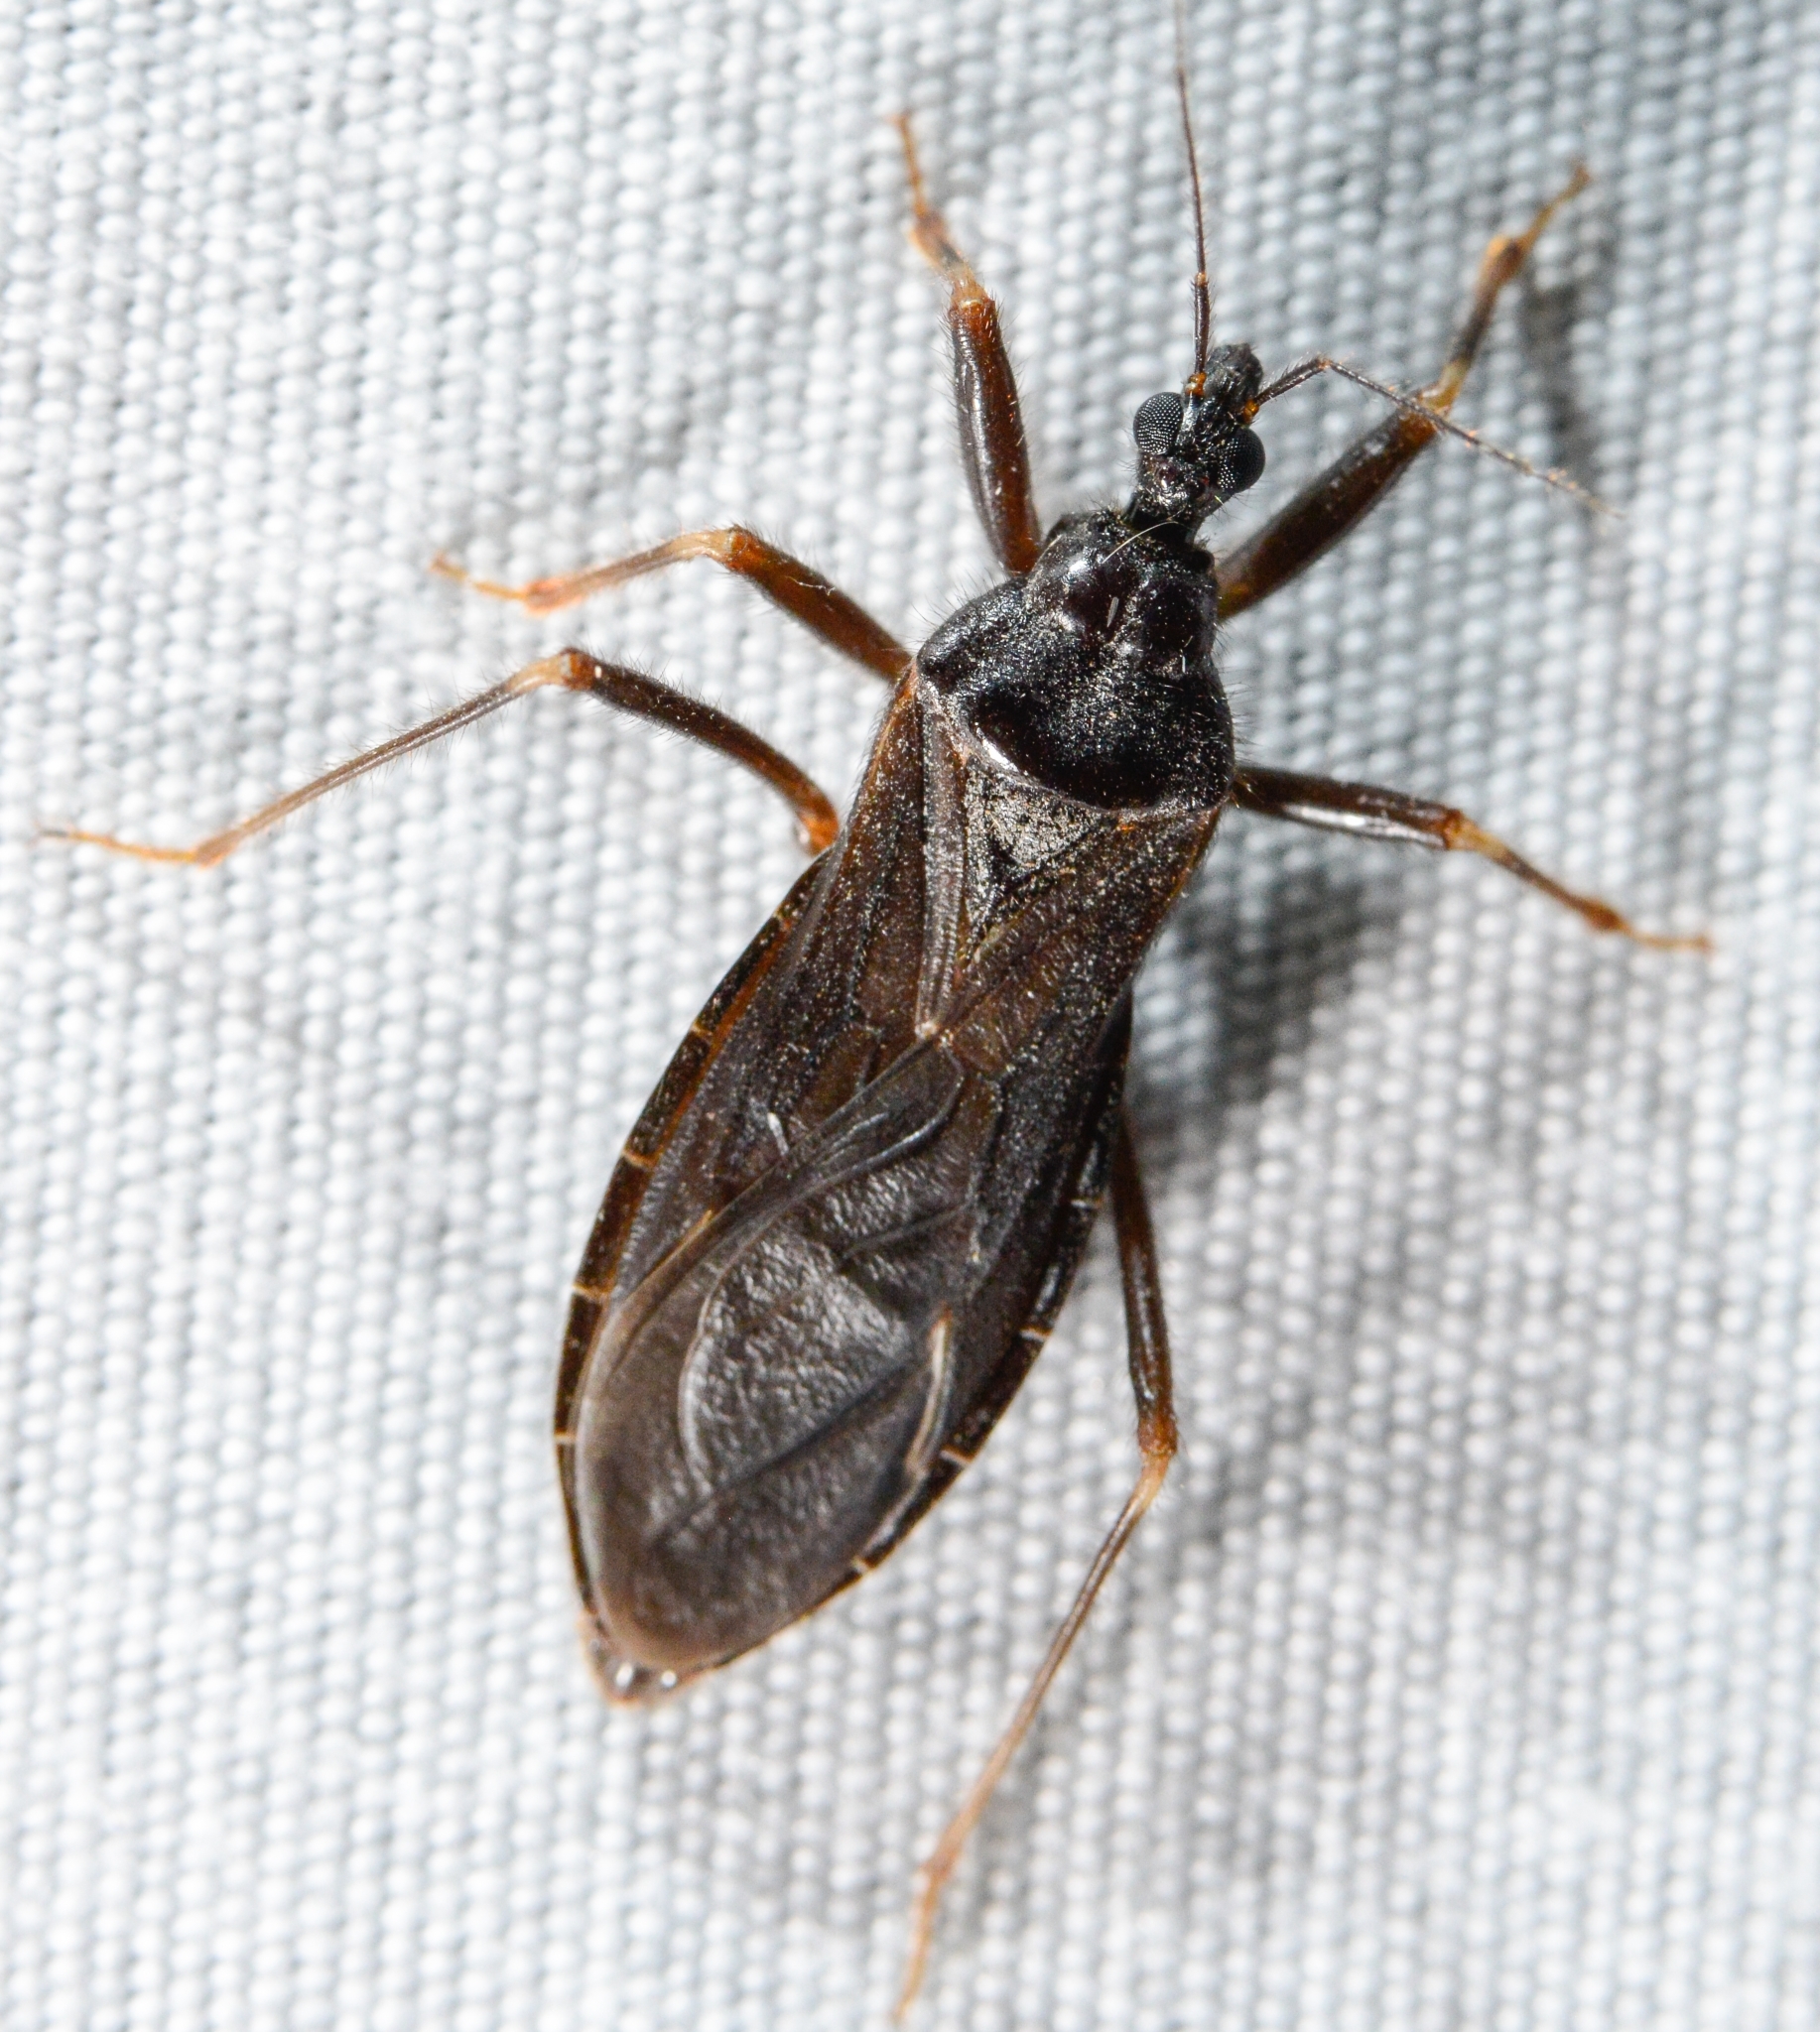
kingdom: Animalia
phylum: Arthropoda
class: Insecta
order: Hemiptera
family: Reduviidae
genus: Reduvius
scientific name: Reduvius personatus
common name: Masked hunter
